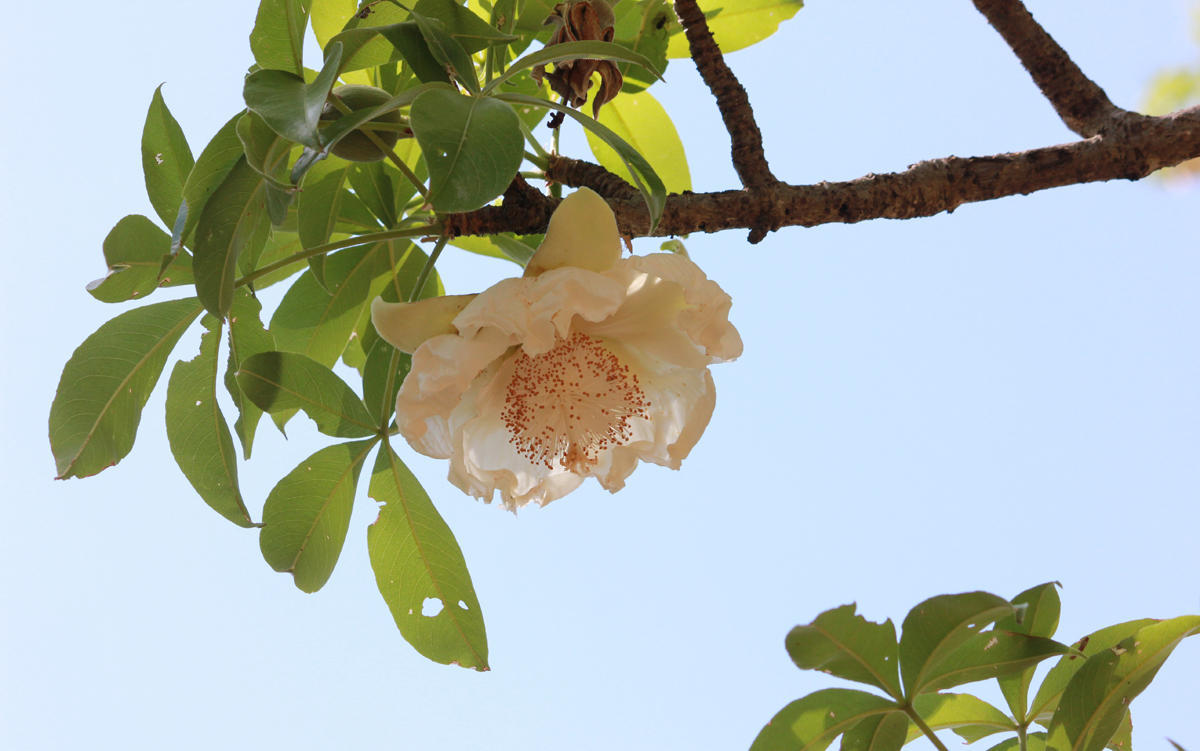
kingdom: Plantae
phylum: Tracheophyta
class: Magnoliopsida
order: Malvales
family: Malvaceae
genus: Adansonia
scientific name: Adansonia digitata
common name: Dead-rat-tree
